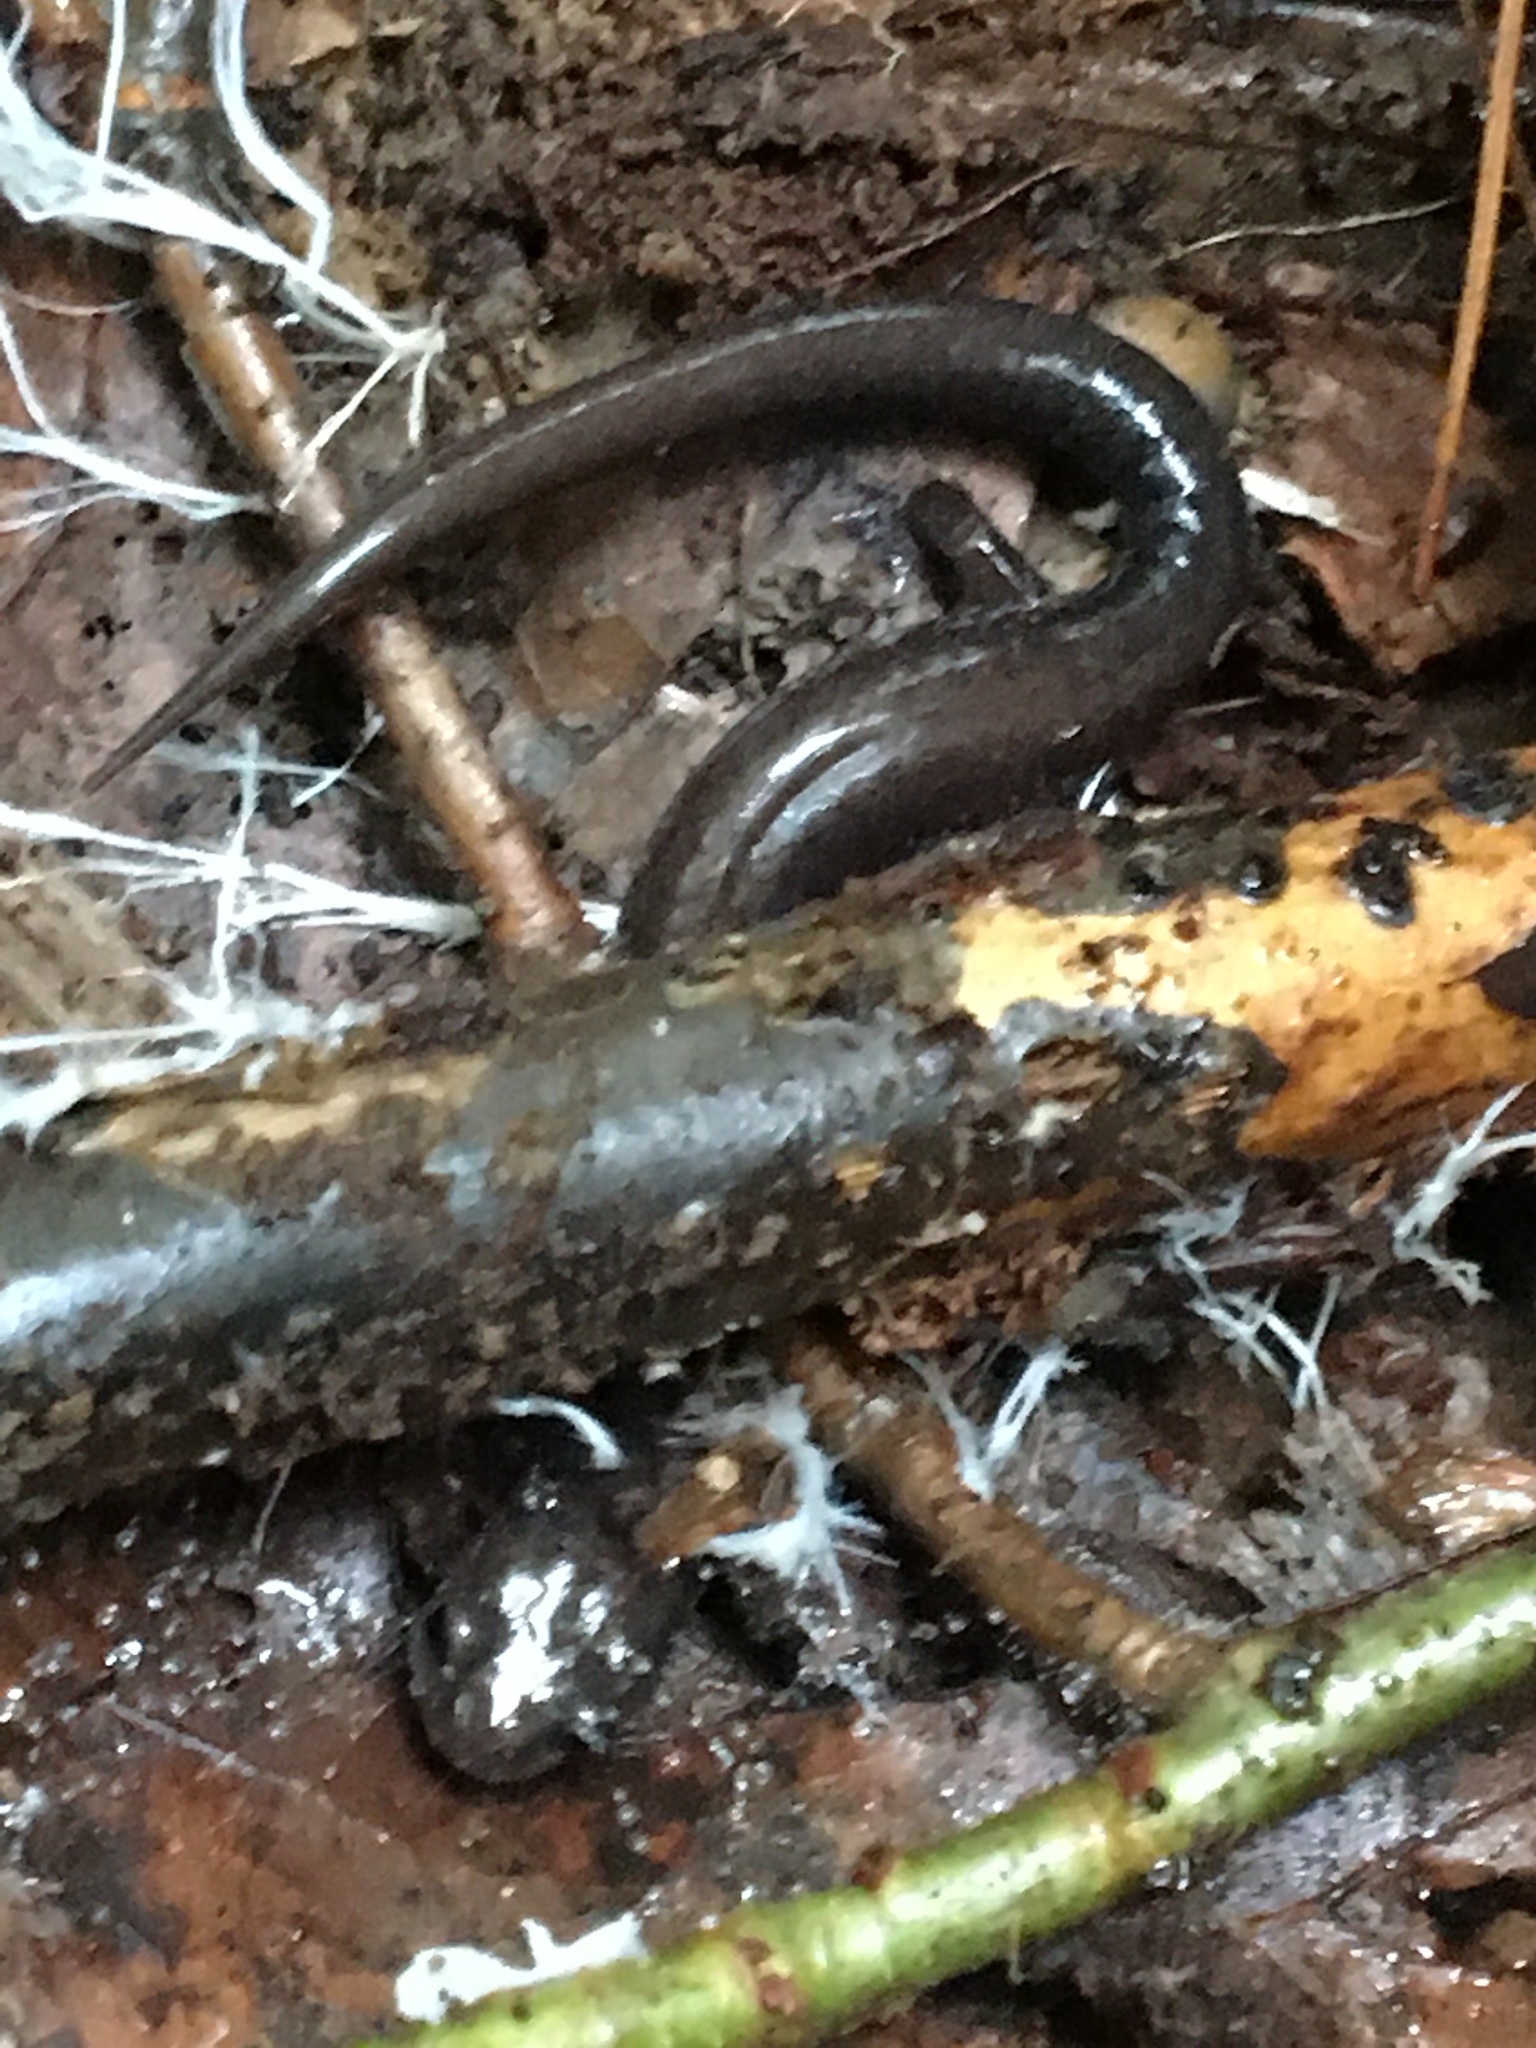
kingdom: Animalia
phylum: Chordata
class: Amphibia
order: Caudata
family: Plethodontidae
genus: Plethodon
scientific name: Plethodon cinereus
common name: Redback salamander
